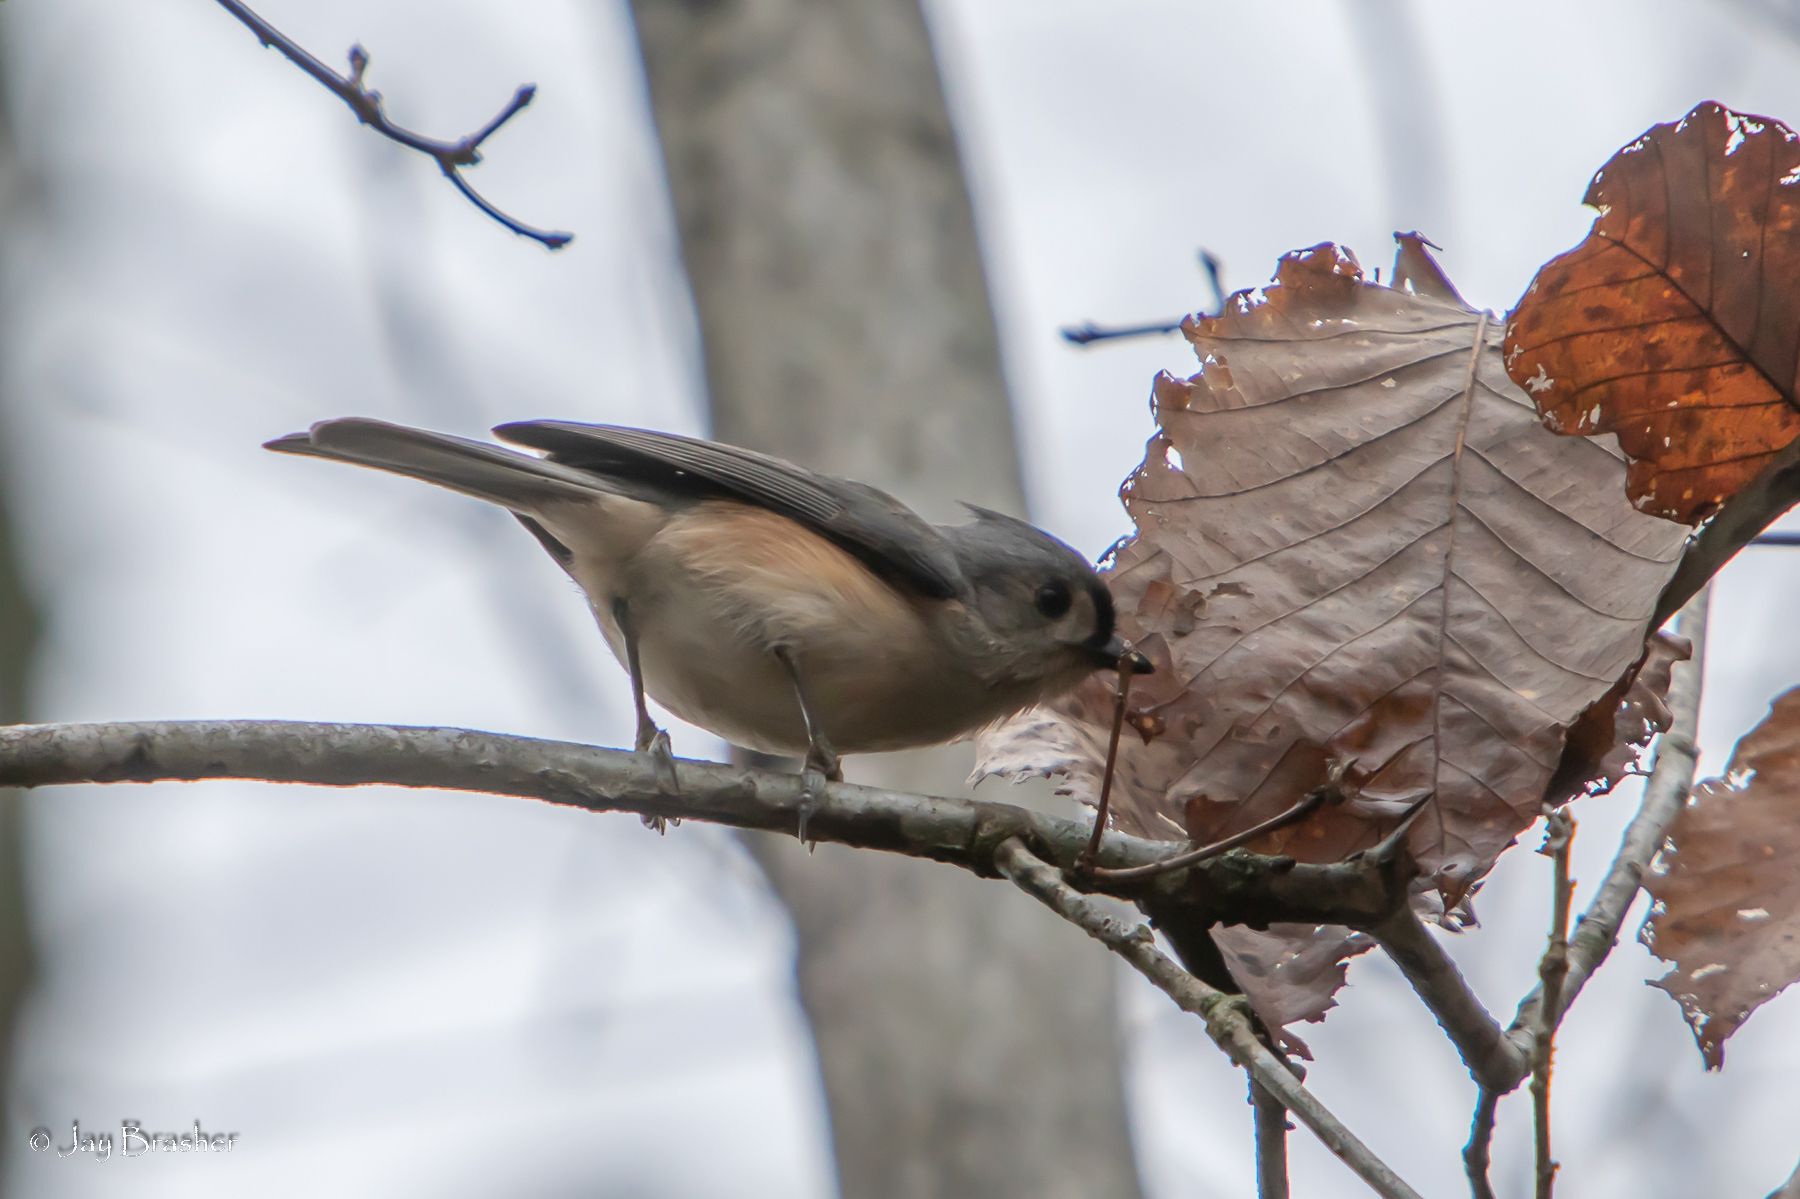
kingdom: Animalia
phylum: Chordata
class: Aves
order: Passeriformes
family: Paridae
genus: Baeolophus
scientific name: Baeolophus bicolor
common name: Tufted titmouse
